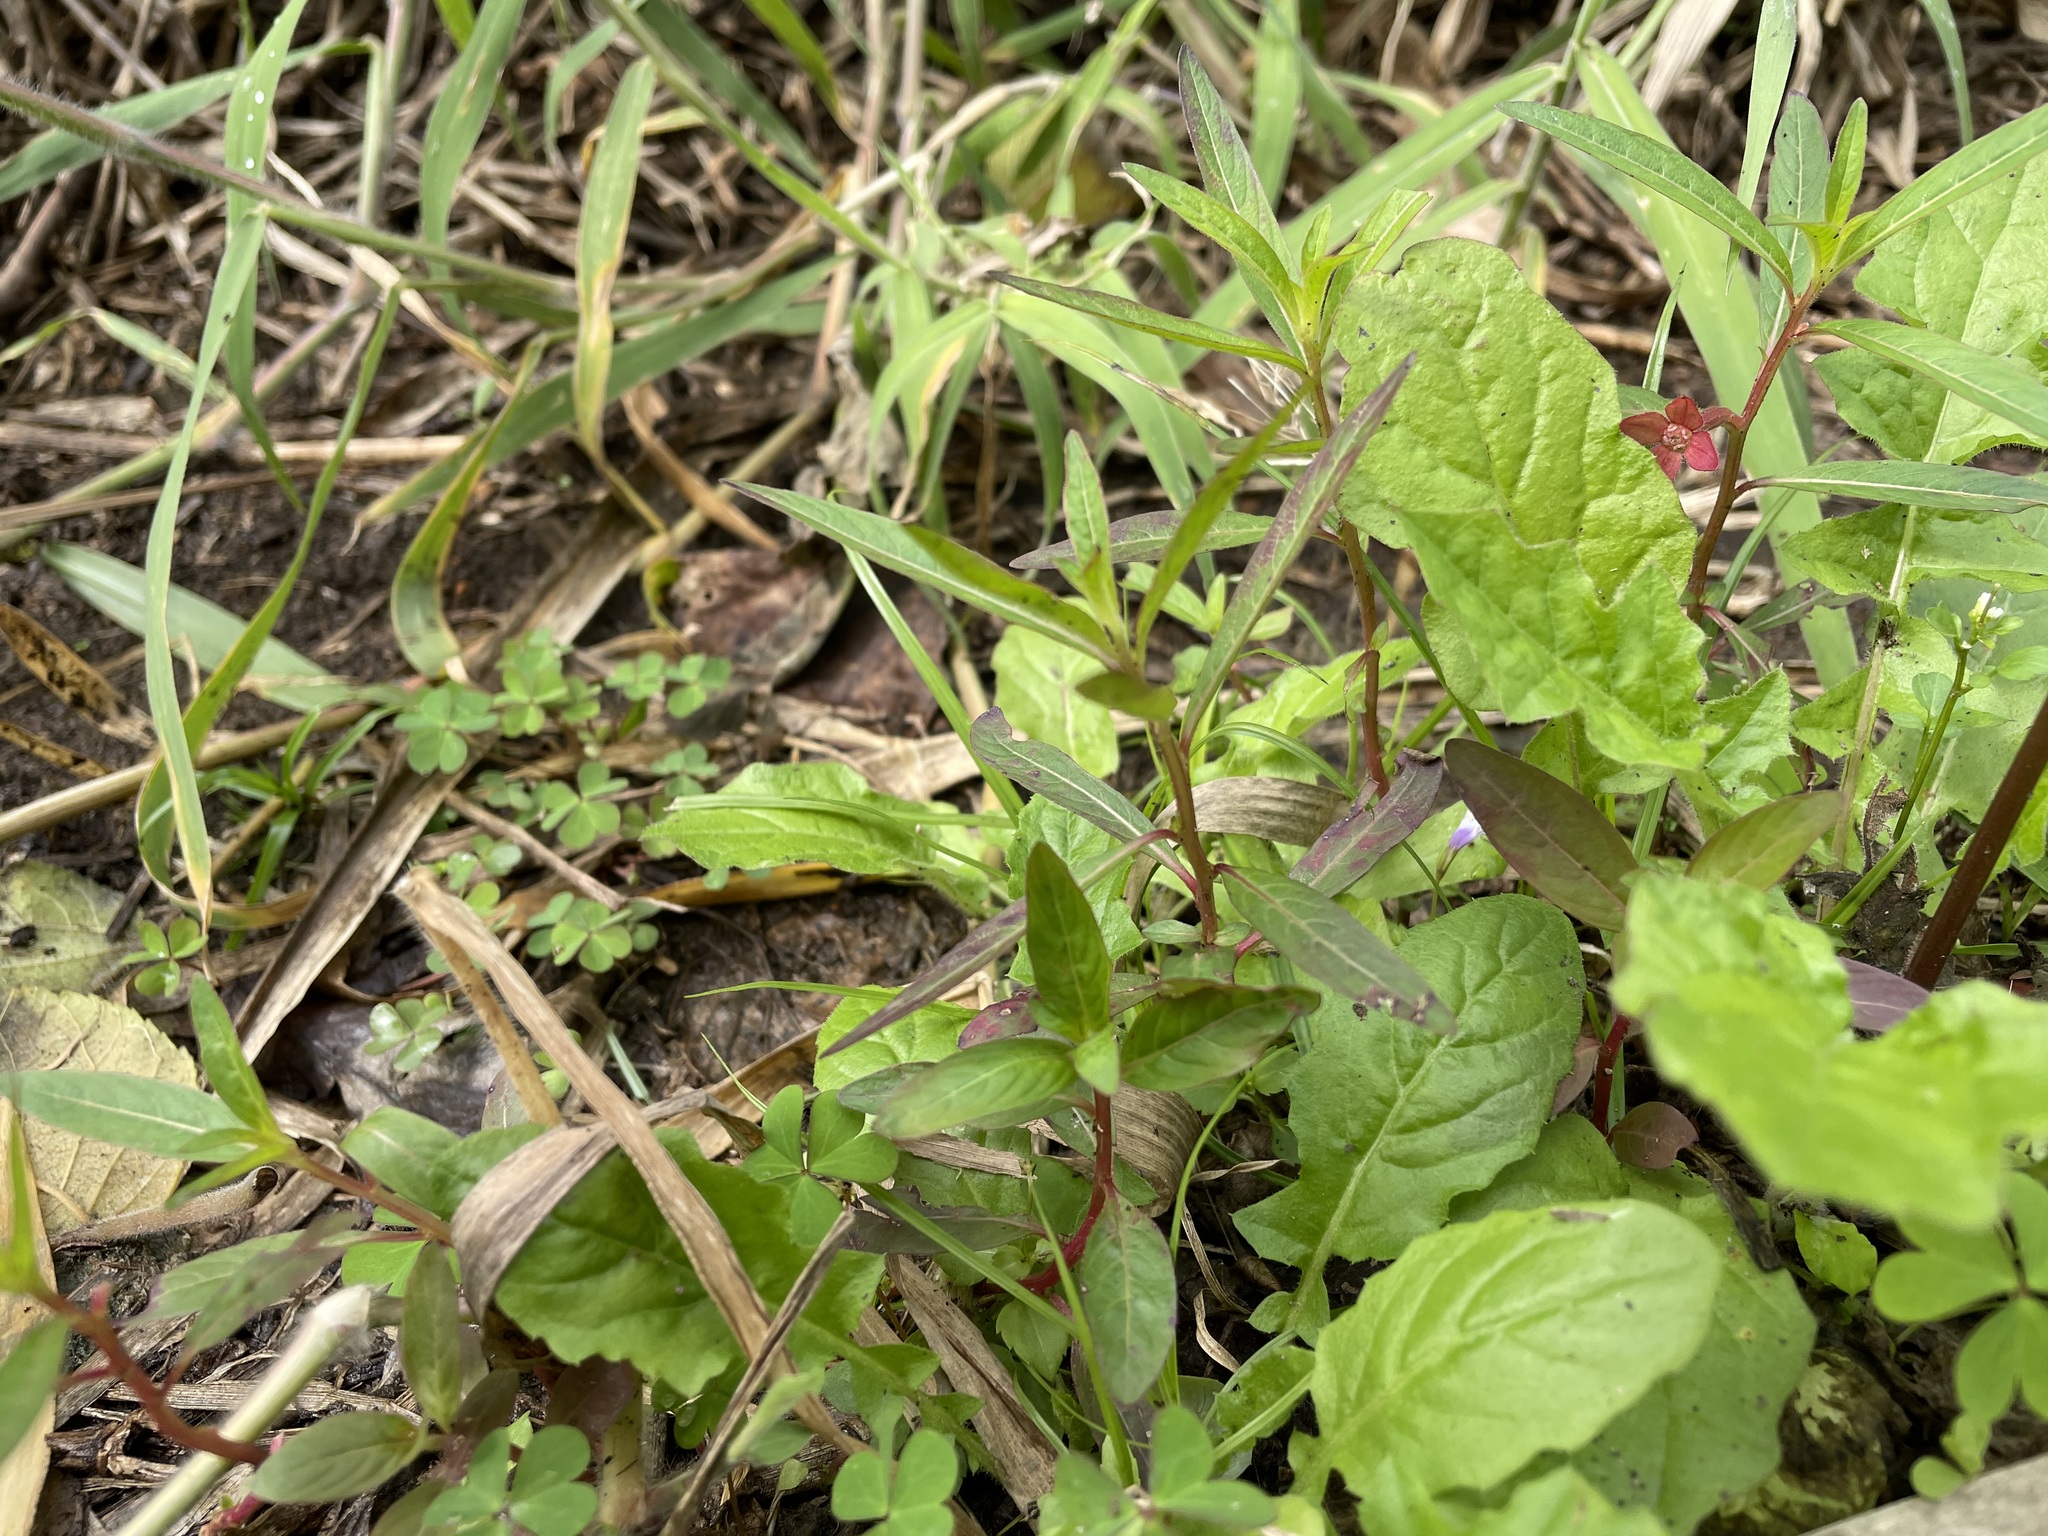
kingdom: Plantae
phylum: Tracheophyta
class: Magnoliopsida
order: Brassicales
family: Brassicaceae
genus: Rorippa
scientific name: Rorippa indica
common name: Variableleaf yellowcress
